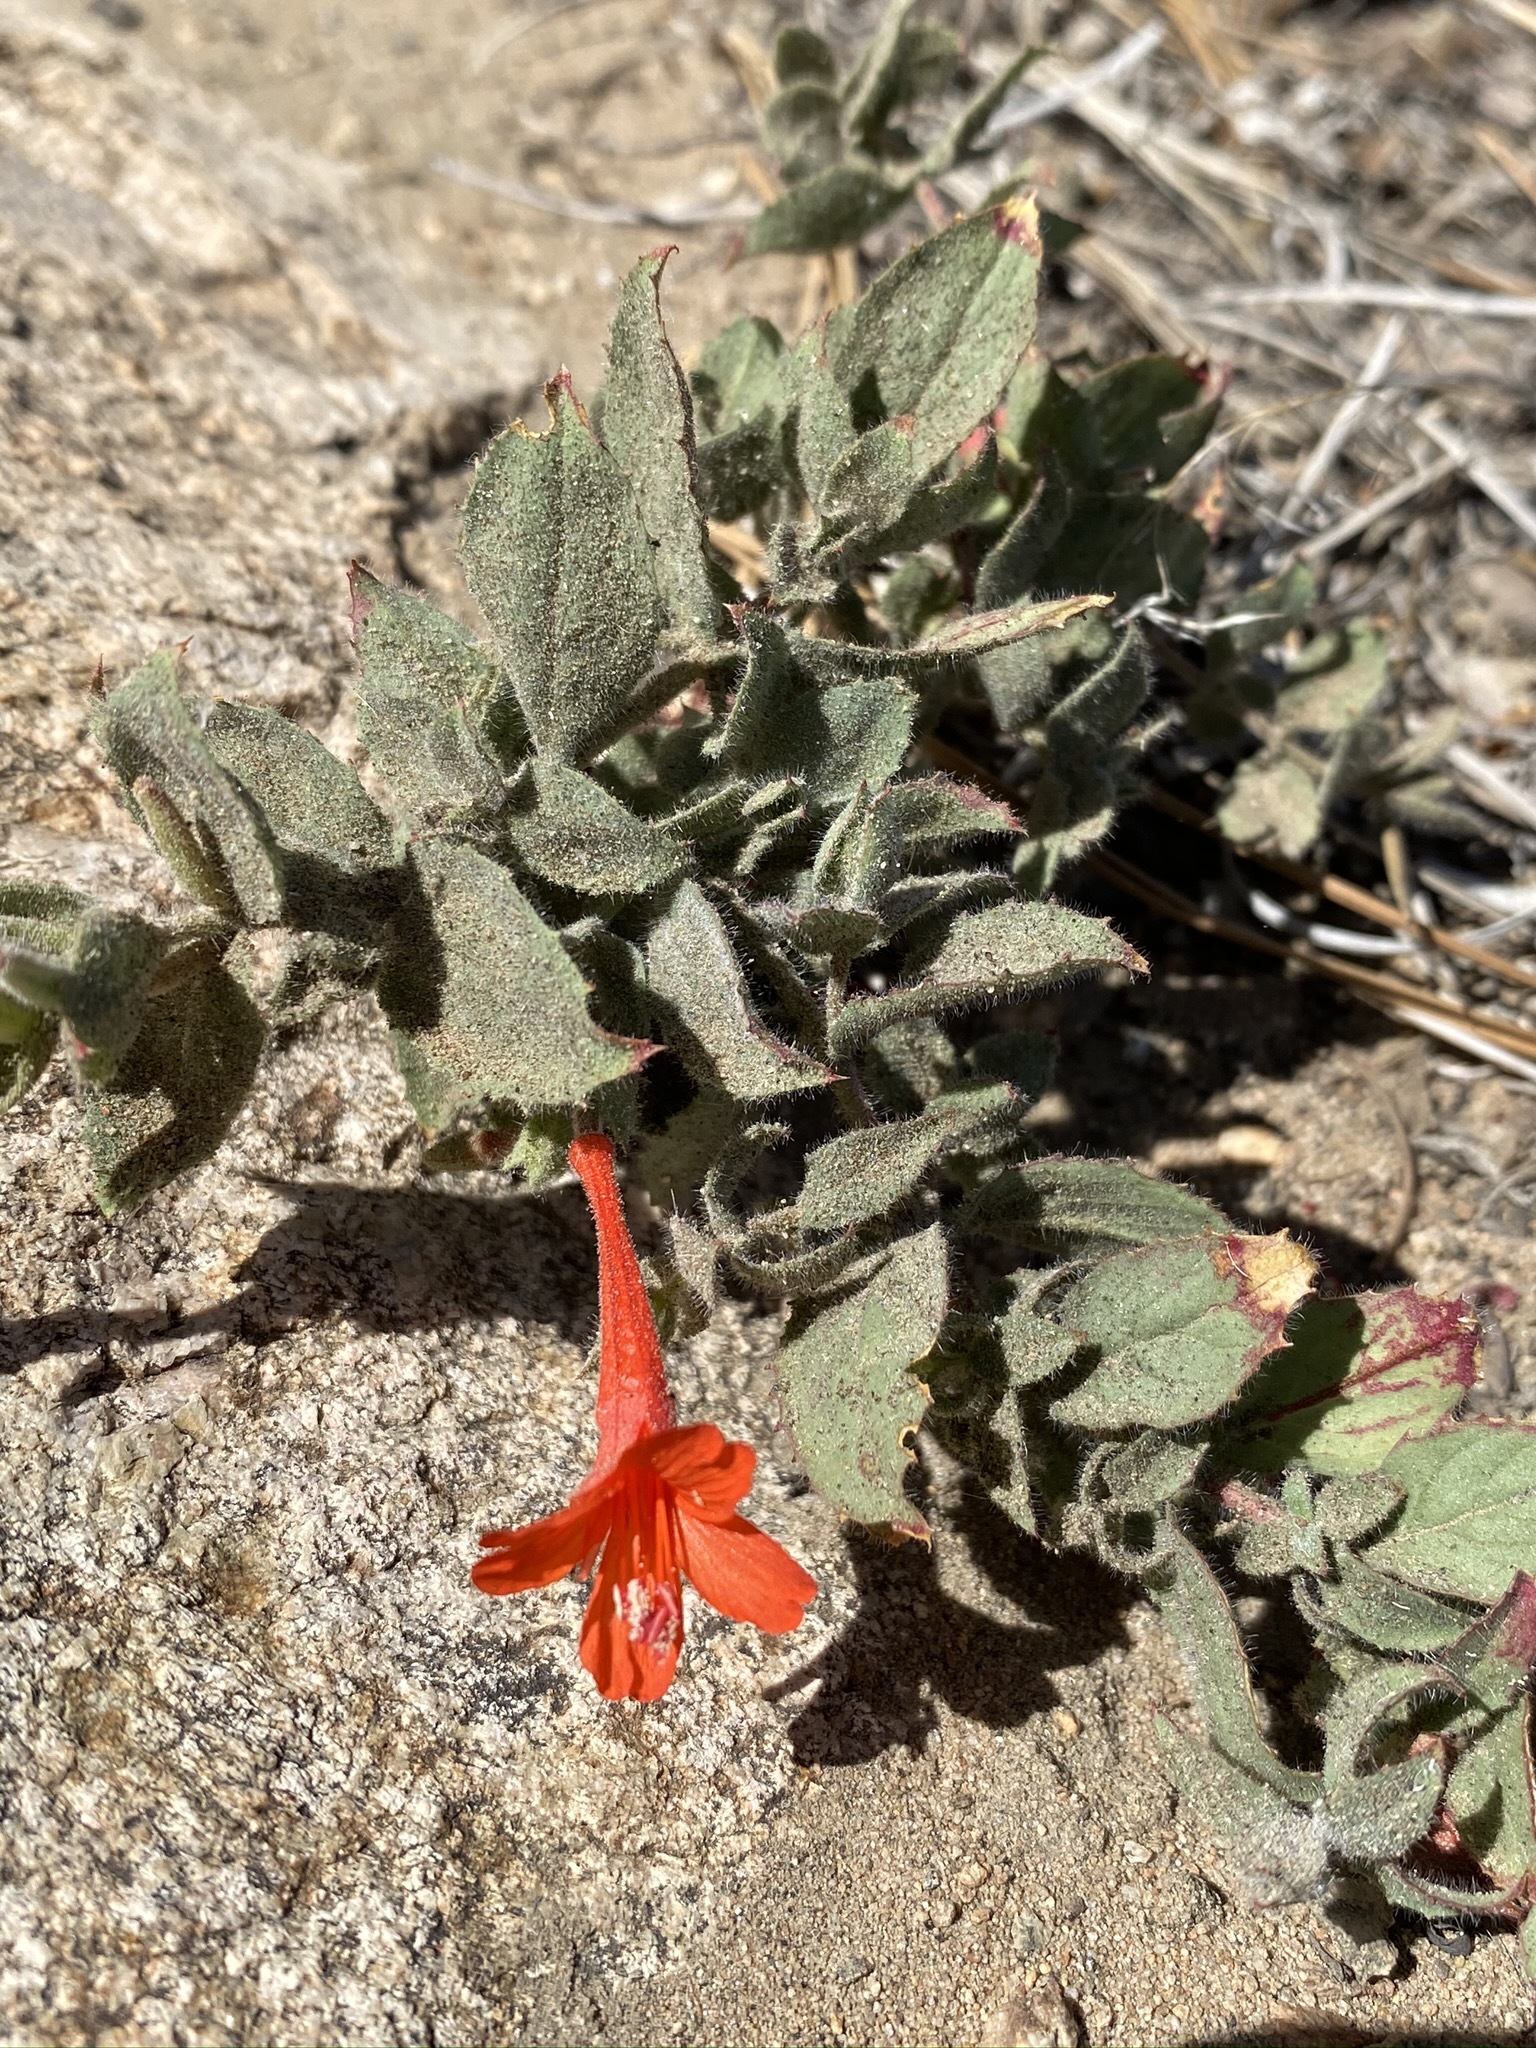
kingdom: Plantae
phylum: Tracheophyta
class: Magnoliopsida
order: Myrtales
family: Onagraceae
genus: Epilobium
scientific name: Epilobium canum
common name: California-fuchsia
